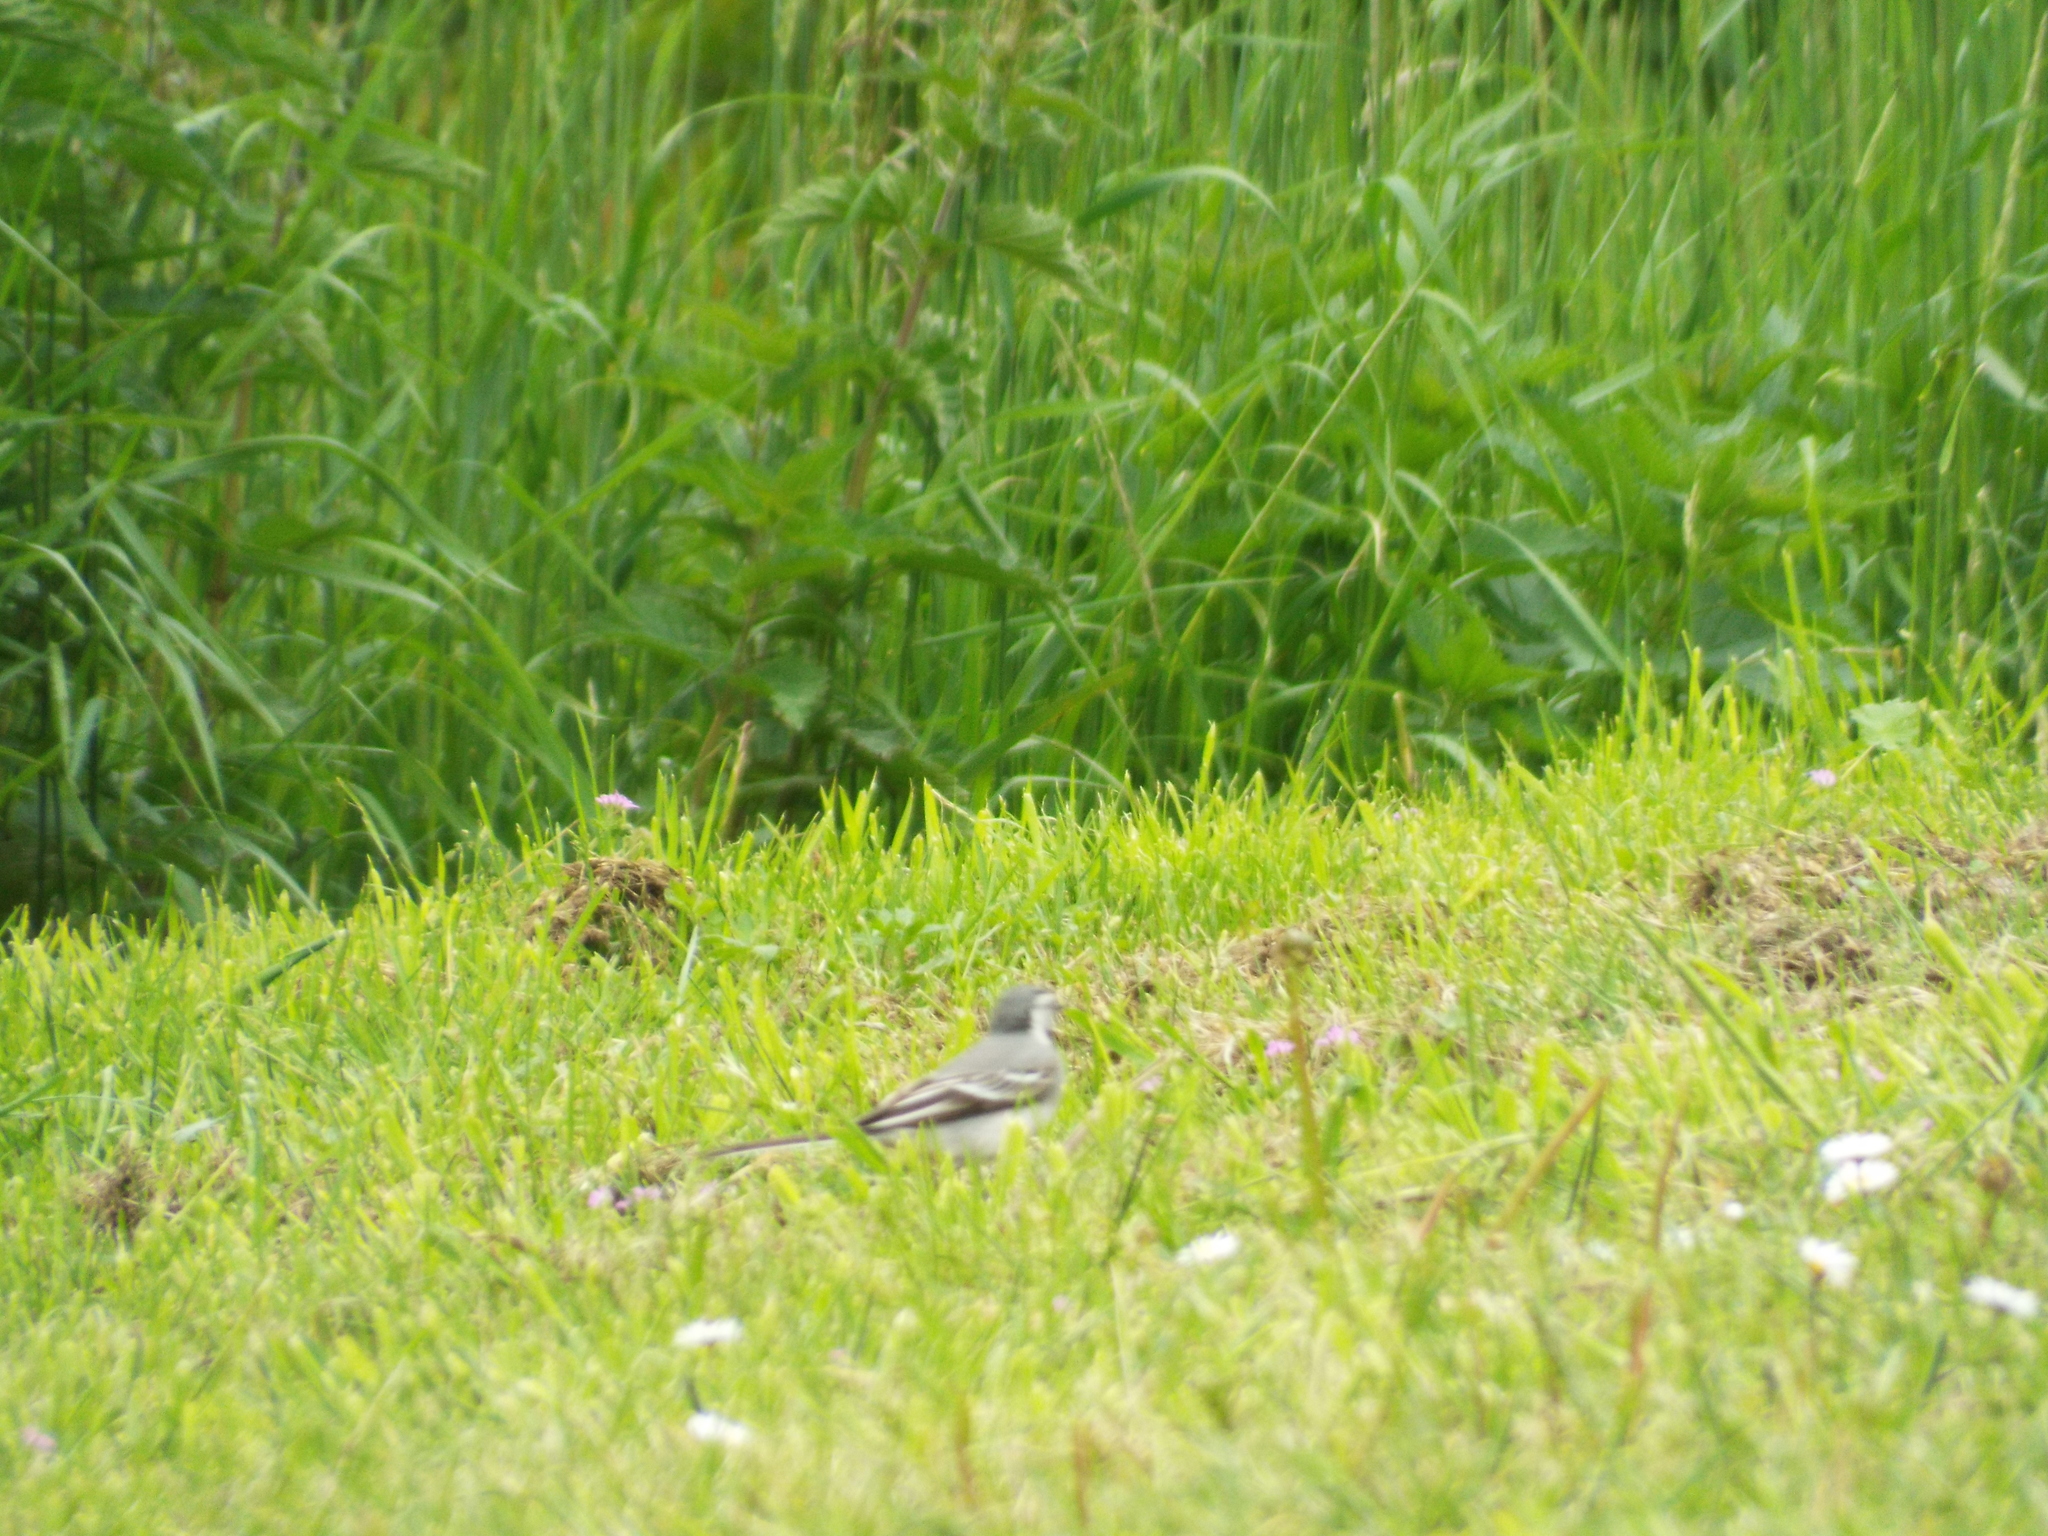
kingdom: Animalia
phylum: Chordata
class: Aves
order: Passeriformes
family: Motacillidae
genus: Motacilla
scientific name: Motacilla alba
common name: White wagtail
